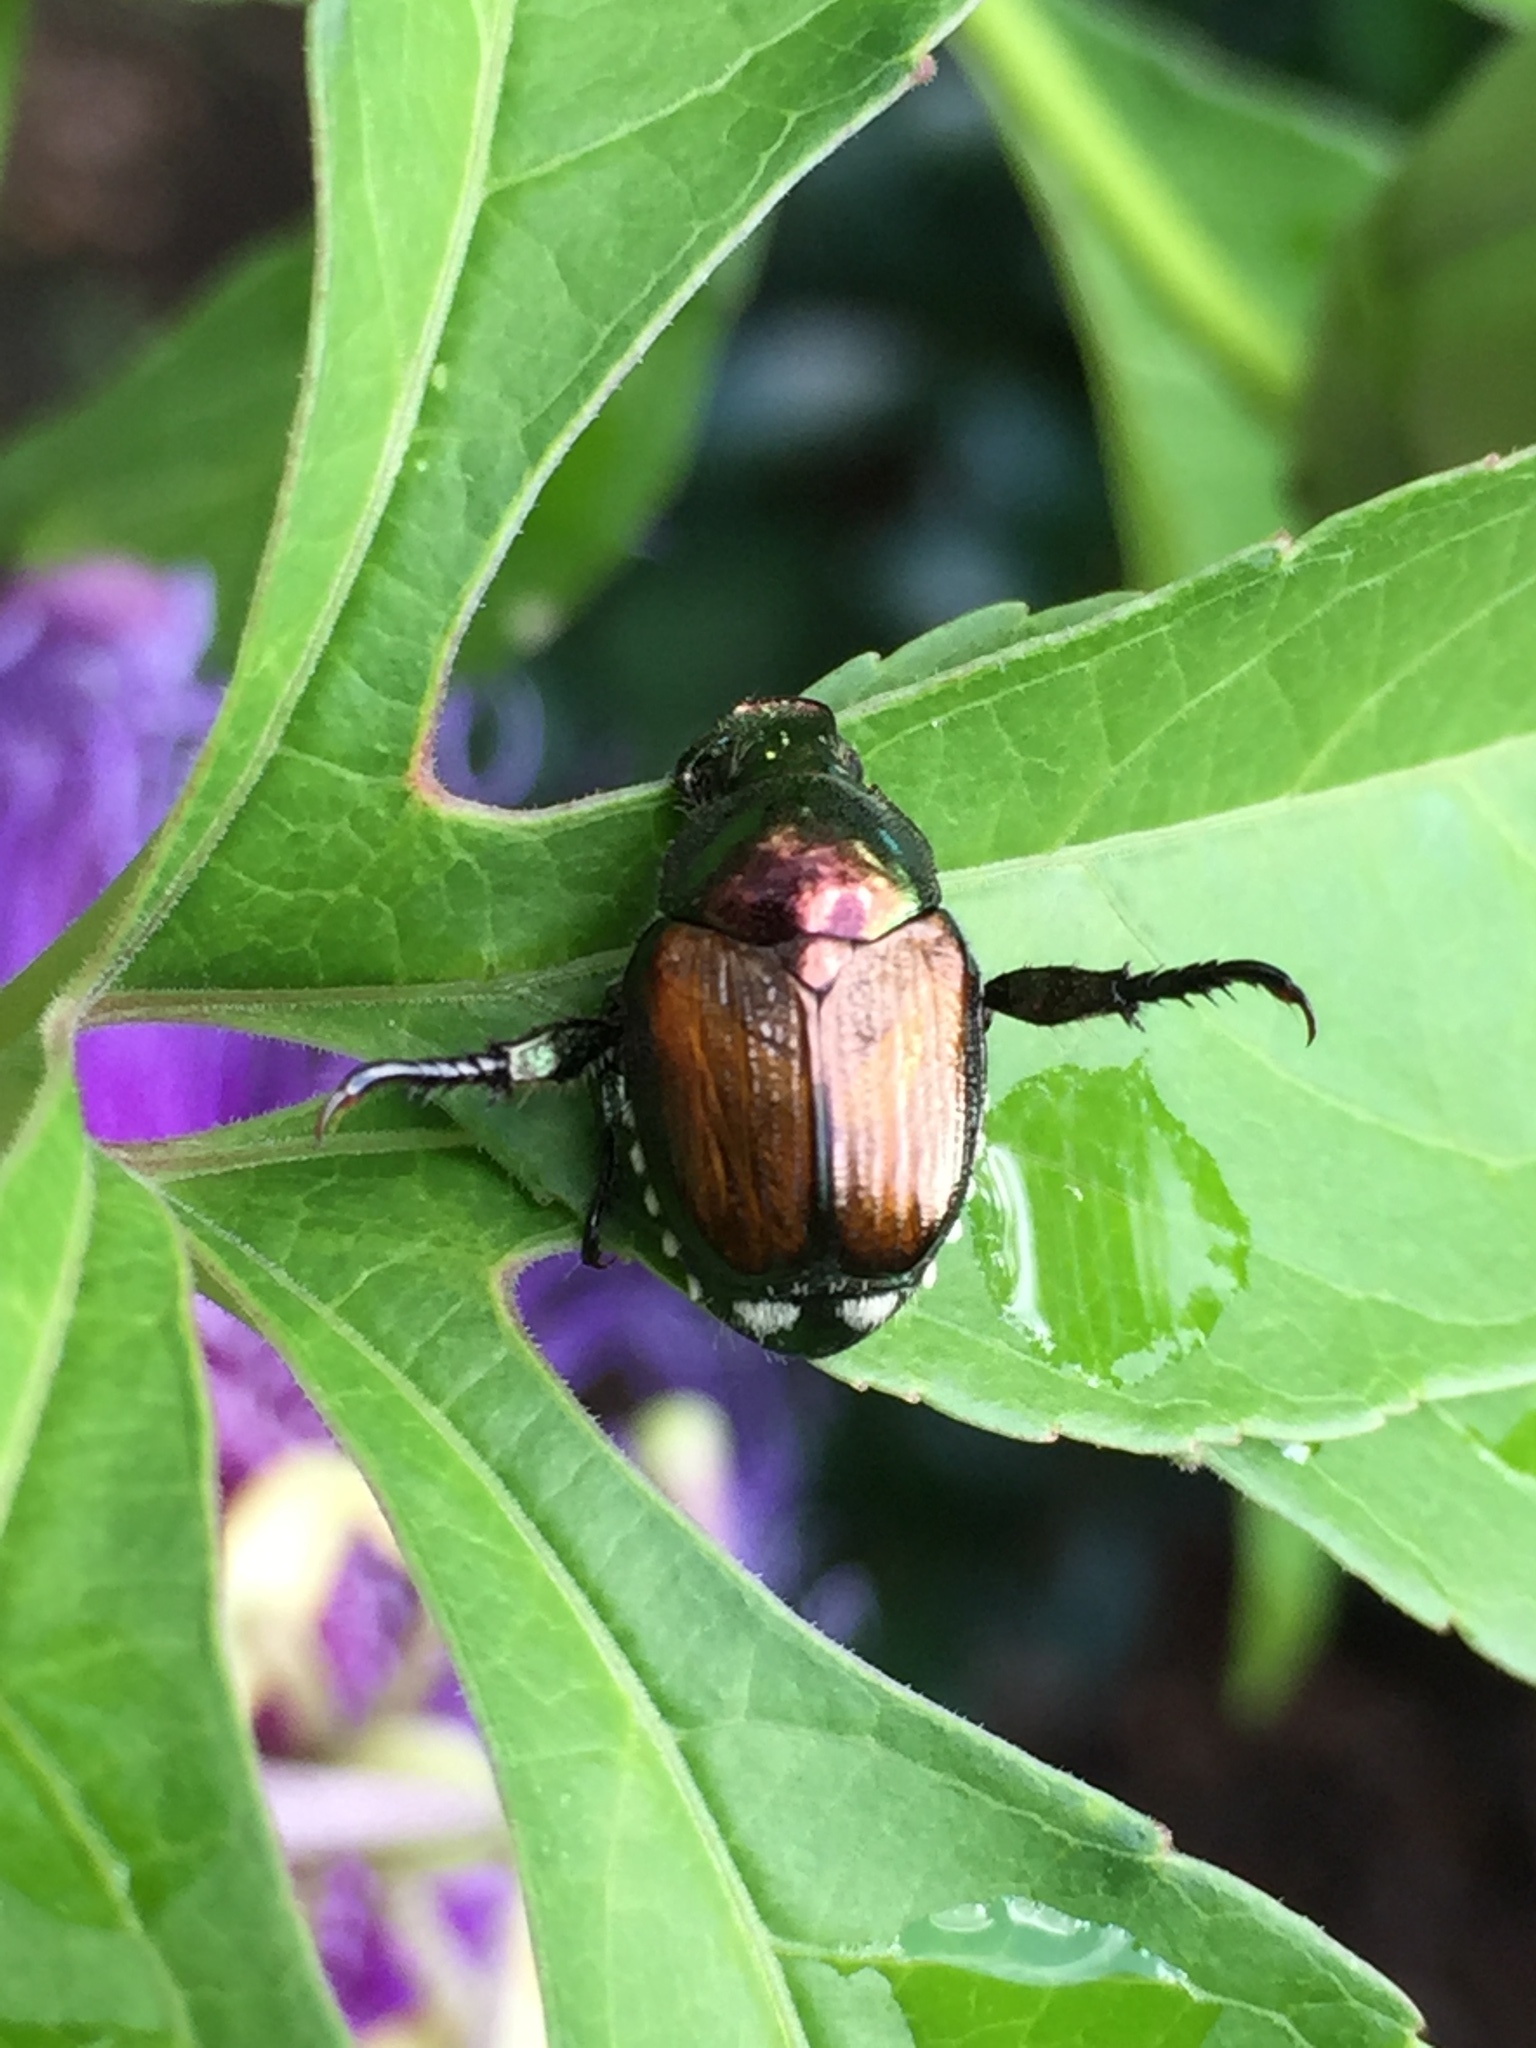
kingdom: Animalia
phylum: Arthropoda
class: Insecta
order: Coleoptera
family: Scarabaeidae
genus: Popillia
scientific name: Popillia japonica
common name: Japanese beetle
